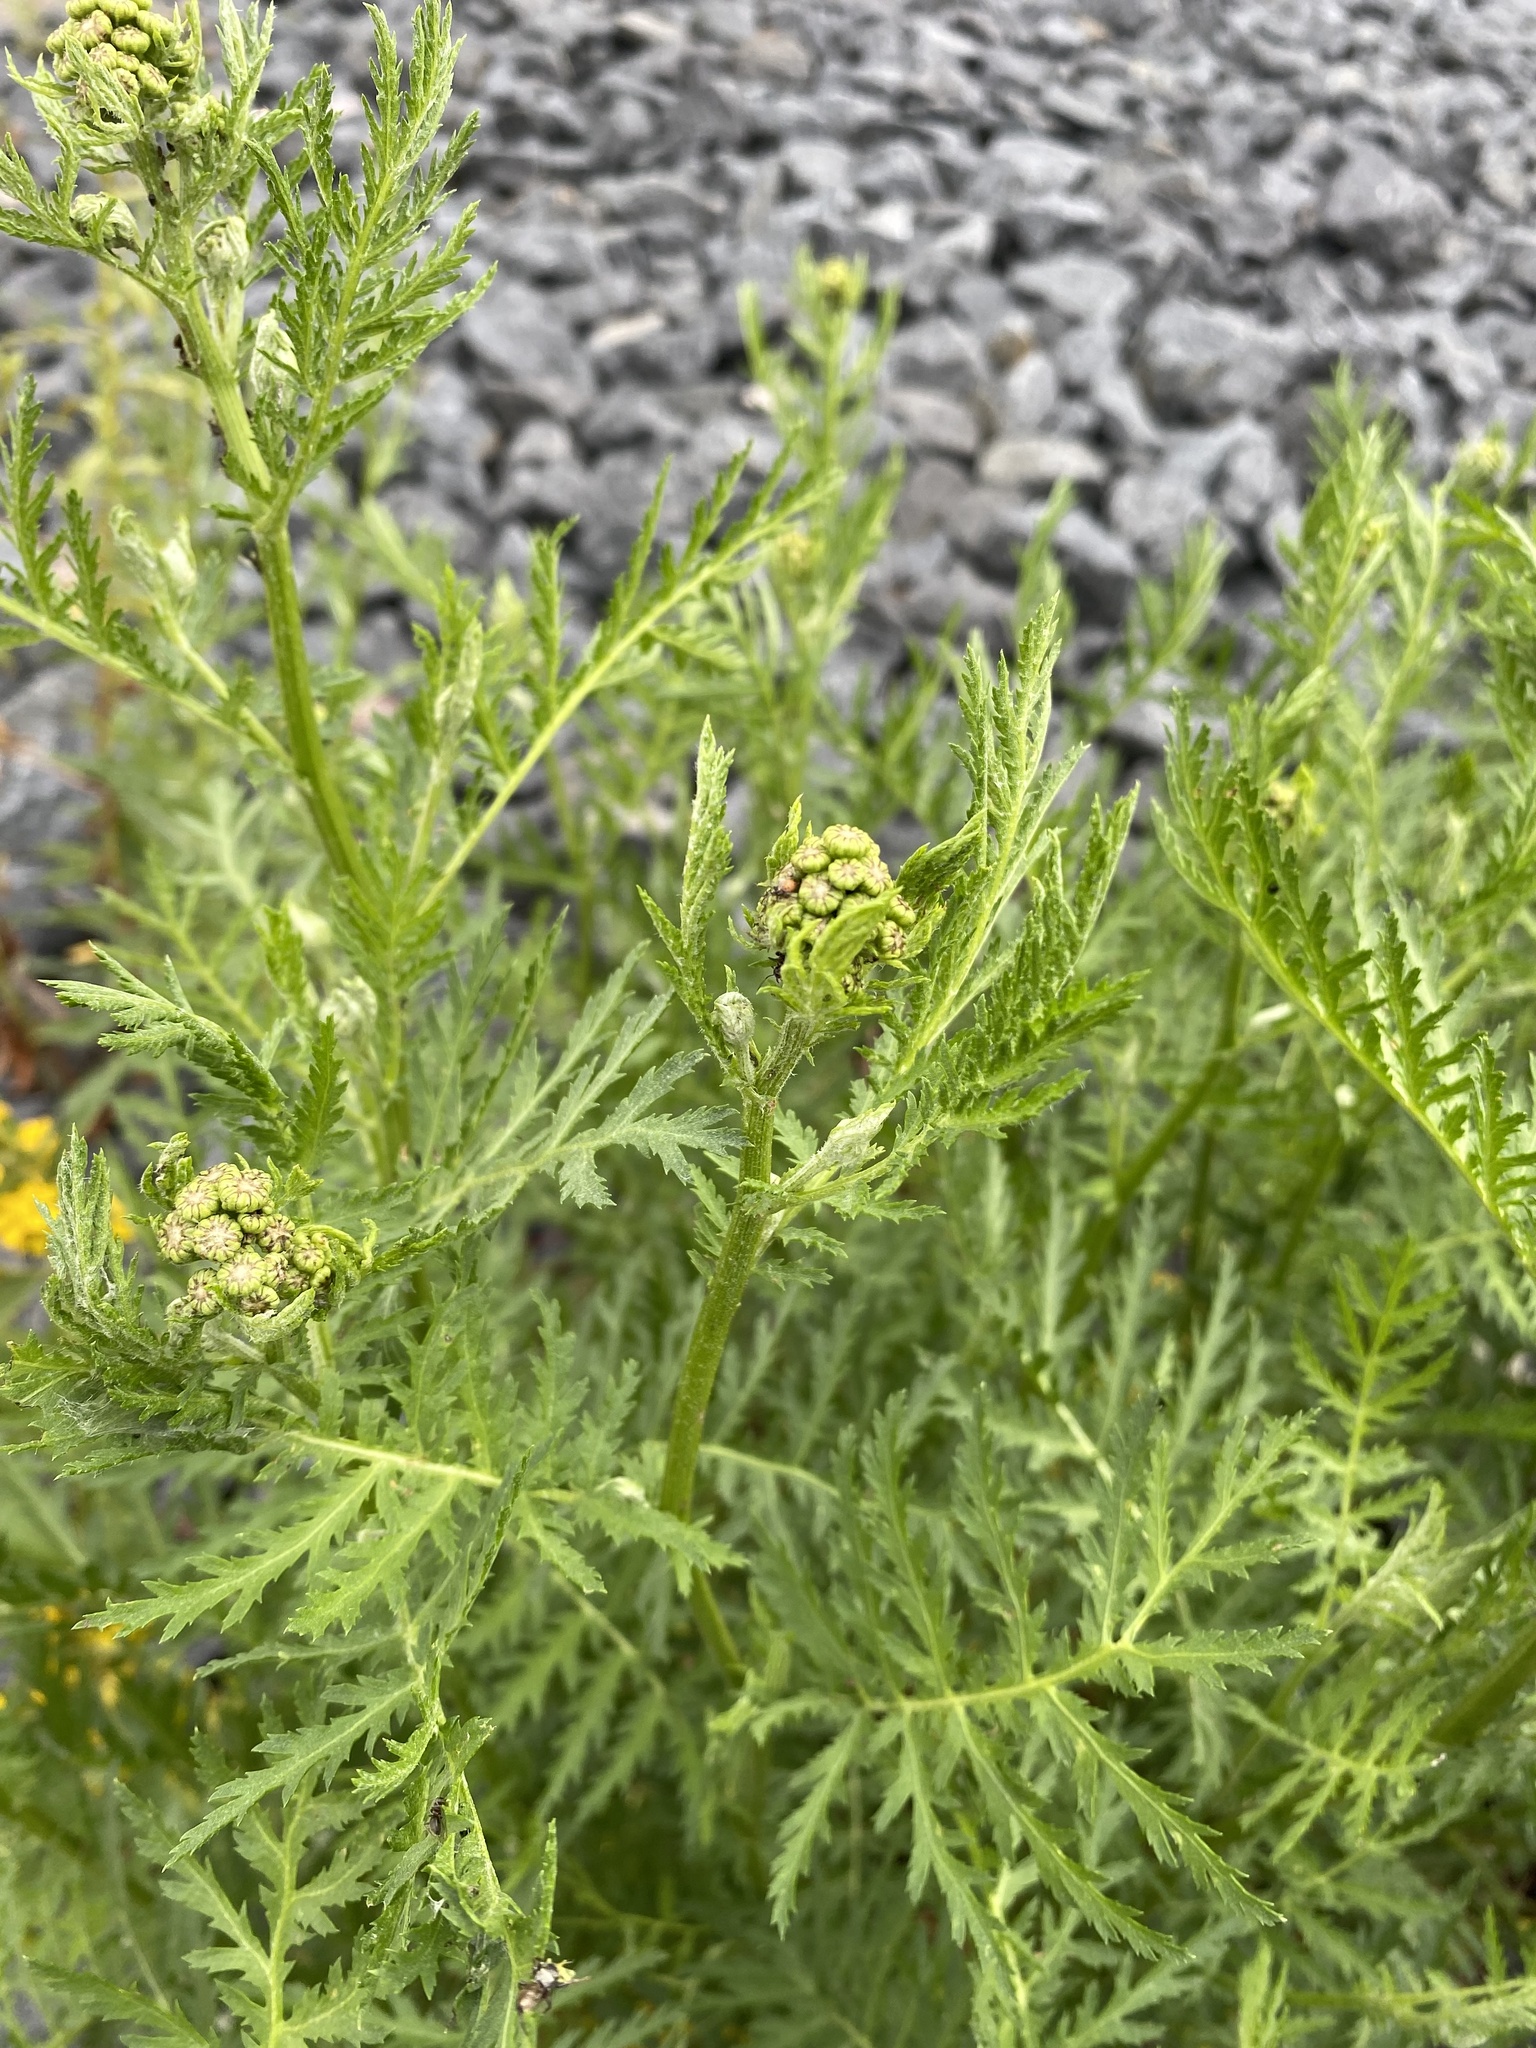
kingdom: Plantae
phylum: Tracheophyta
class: Magnoliopsida
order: Asterales
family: Asteraceae
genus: Tanacetum
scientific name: Tanacetum vulgare
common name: Common tansy
